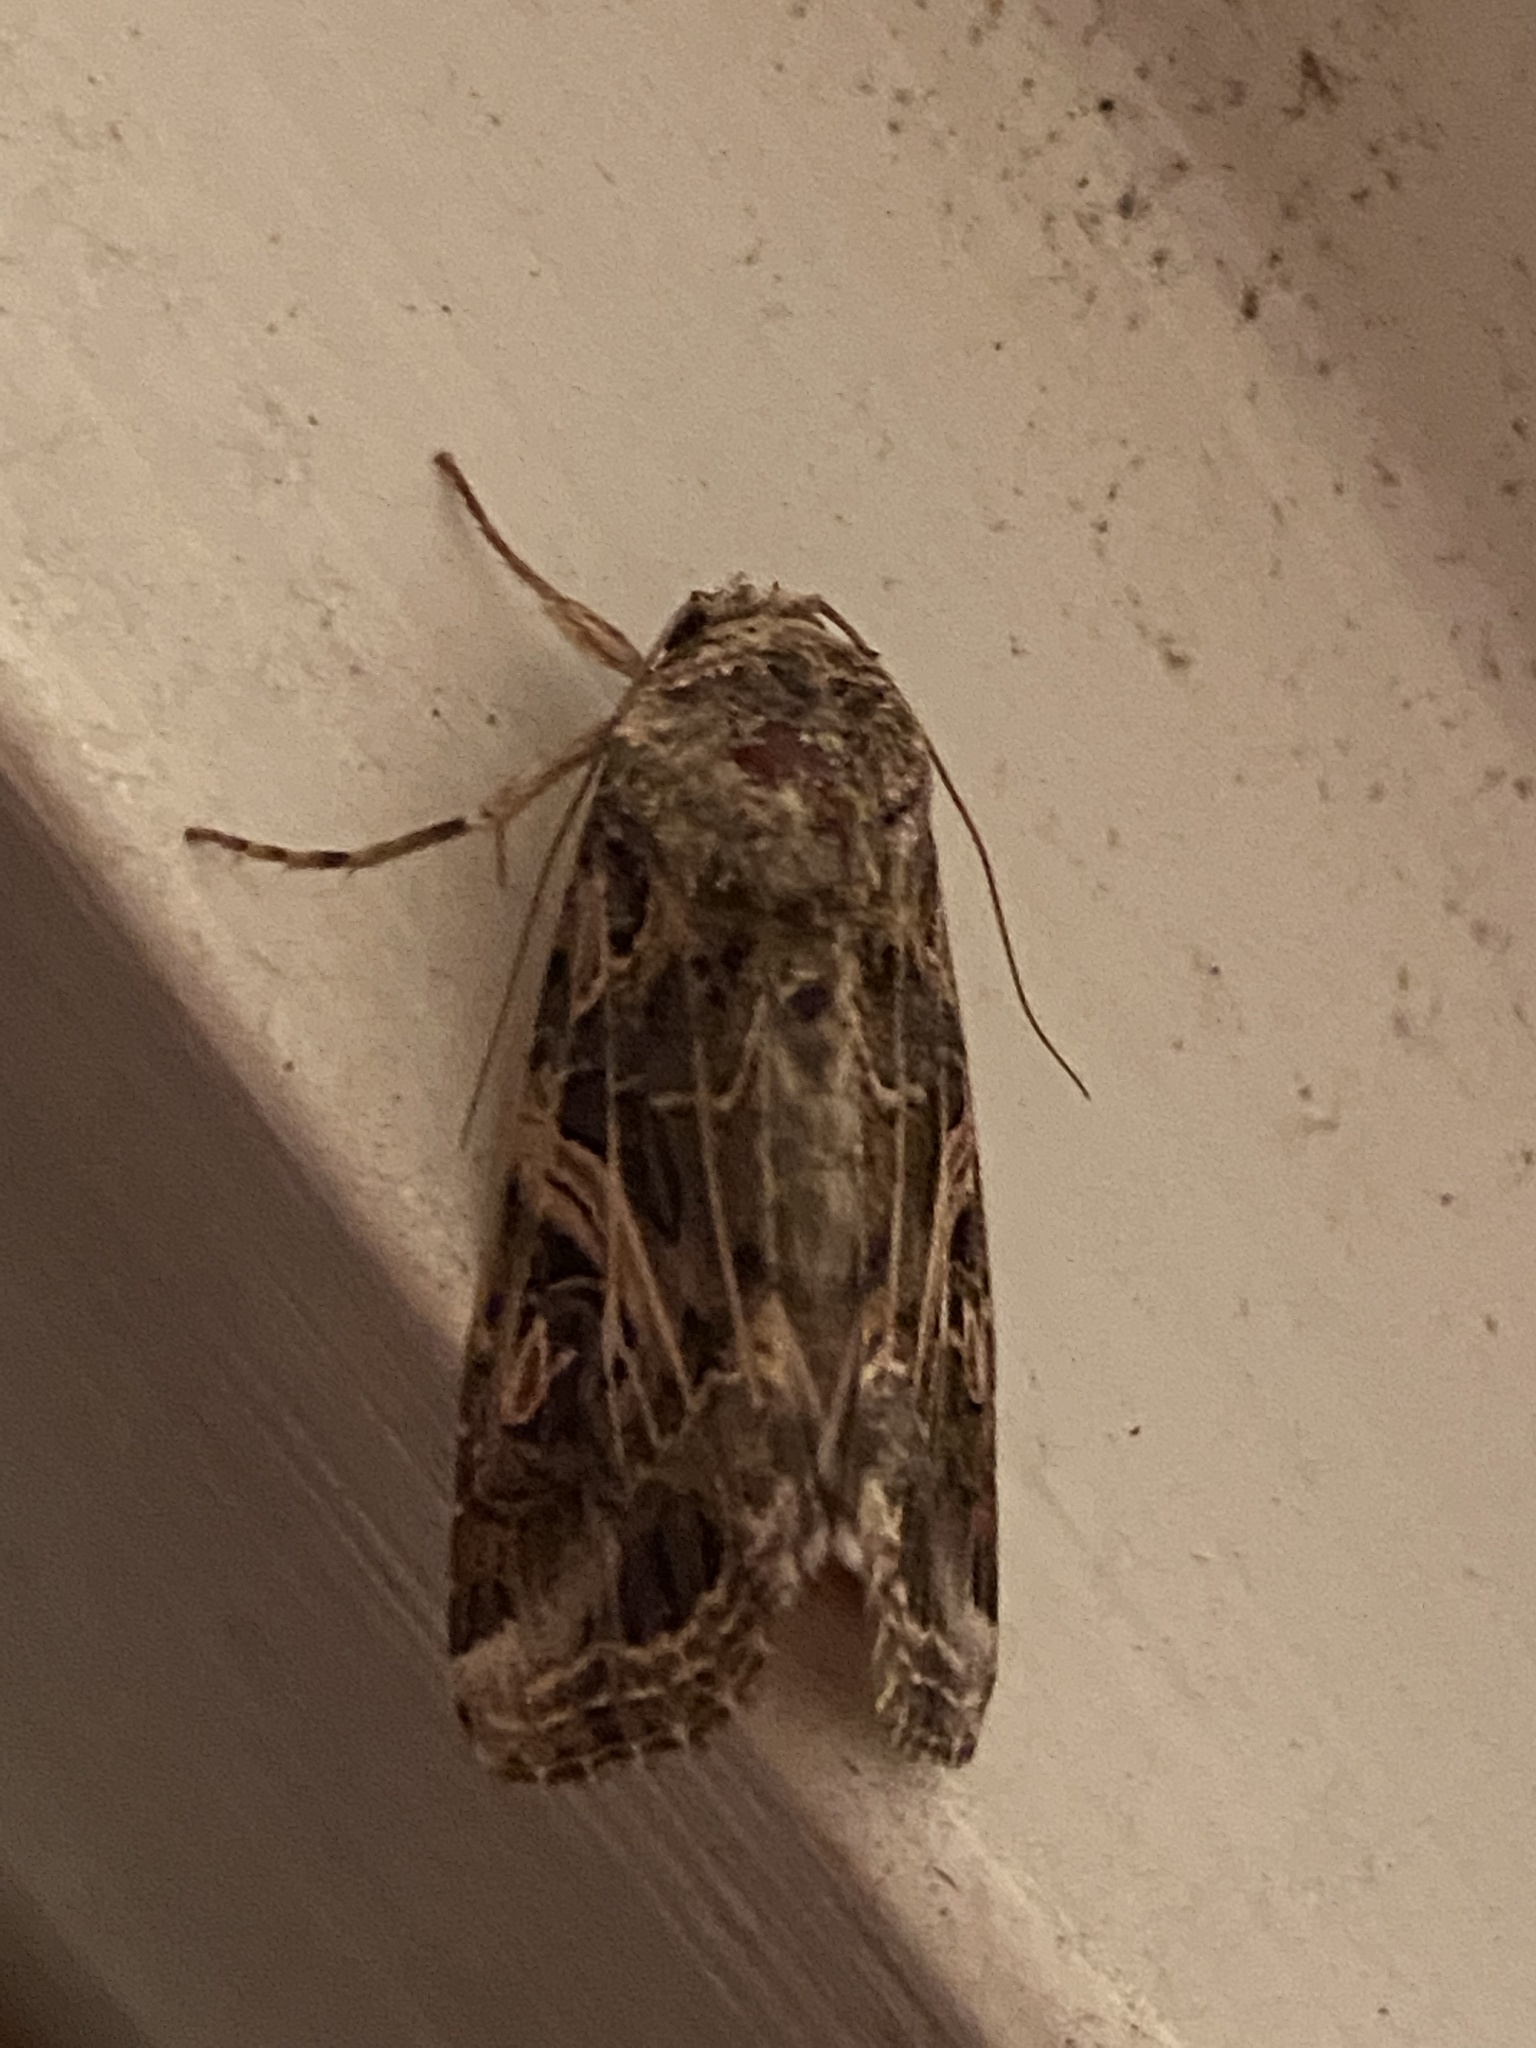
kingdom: Animalia
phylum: Arthropoda
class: Insecta
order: Lepidoptera
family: Noctuidae
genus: Spodoptera
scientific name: Spodoptera ornithogalli
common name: Yellow-striped armyworm
